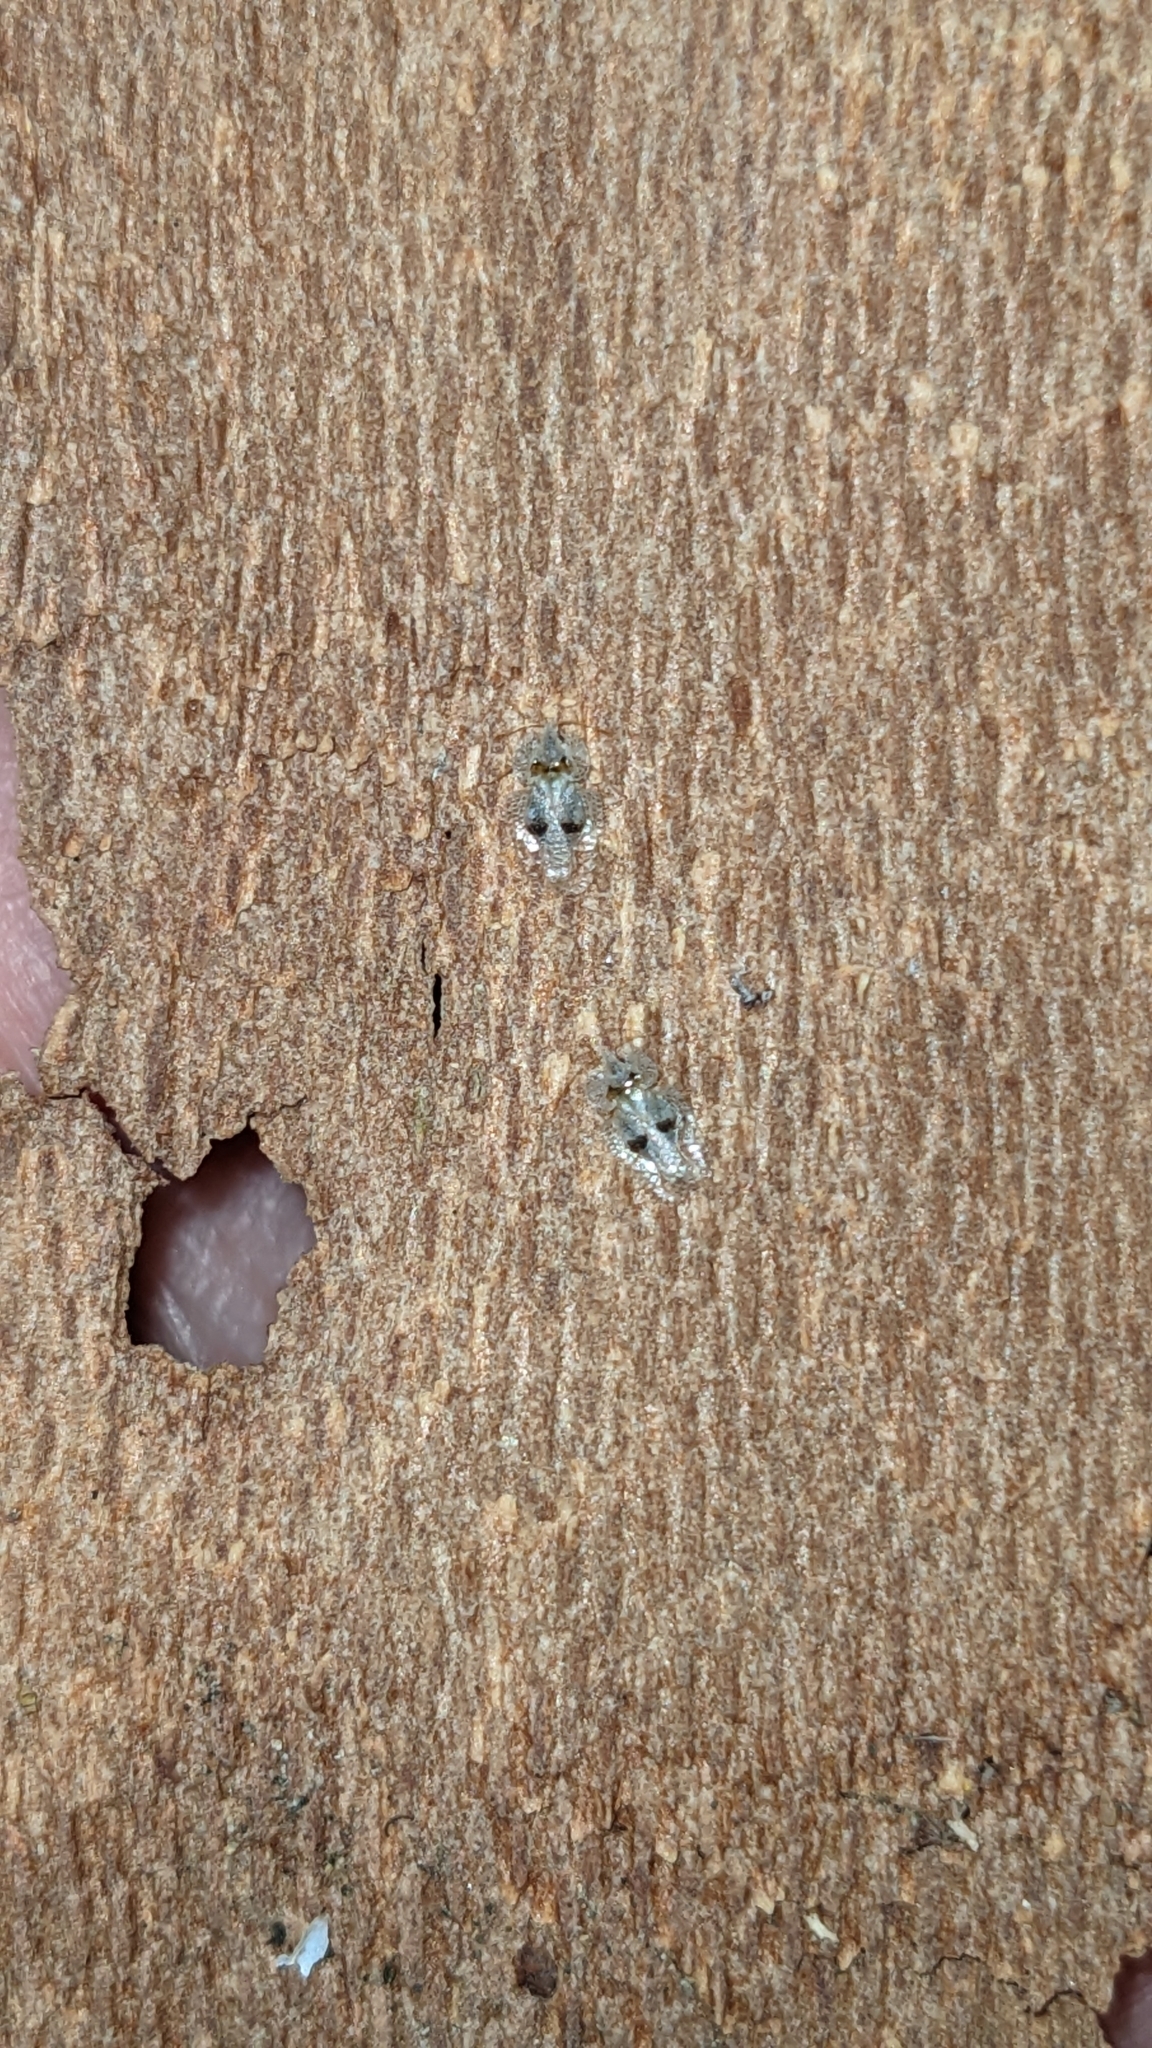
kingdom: Animalia
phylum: Arthropoda
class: Insecta
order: Hemiptera
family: Tingidae
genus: Corythucha
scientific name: Corythucha ciliata
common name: Sycamore lace bug
